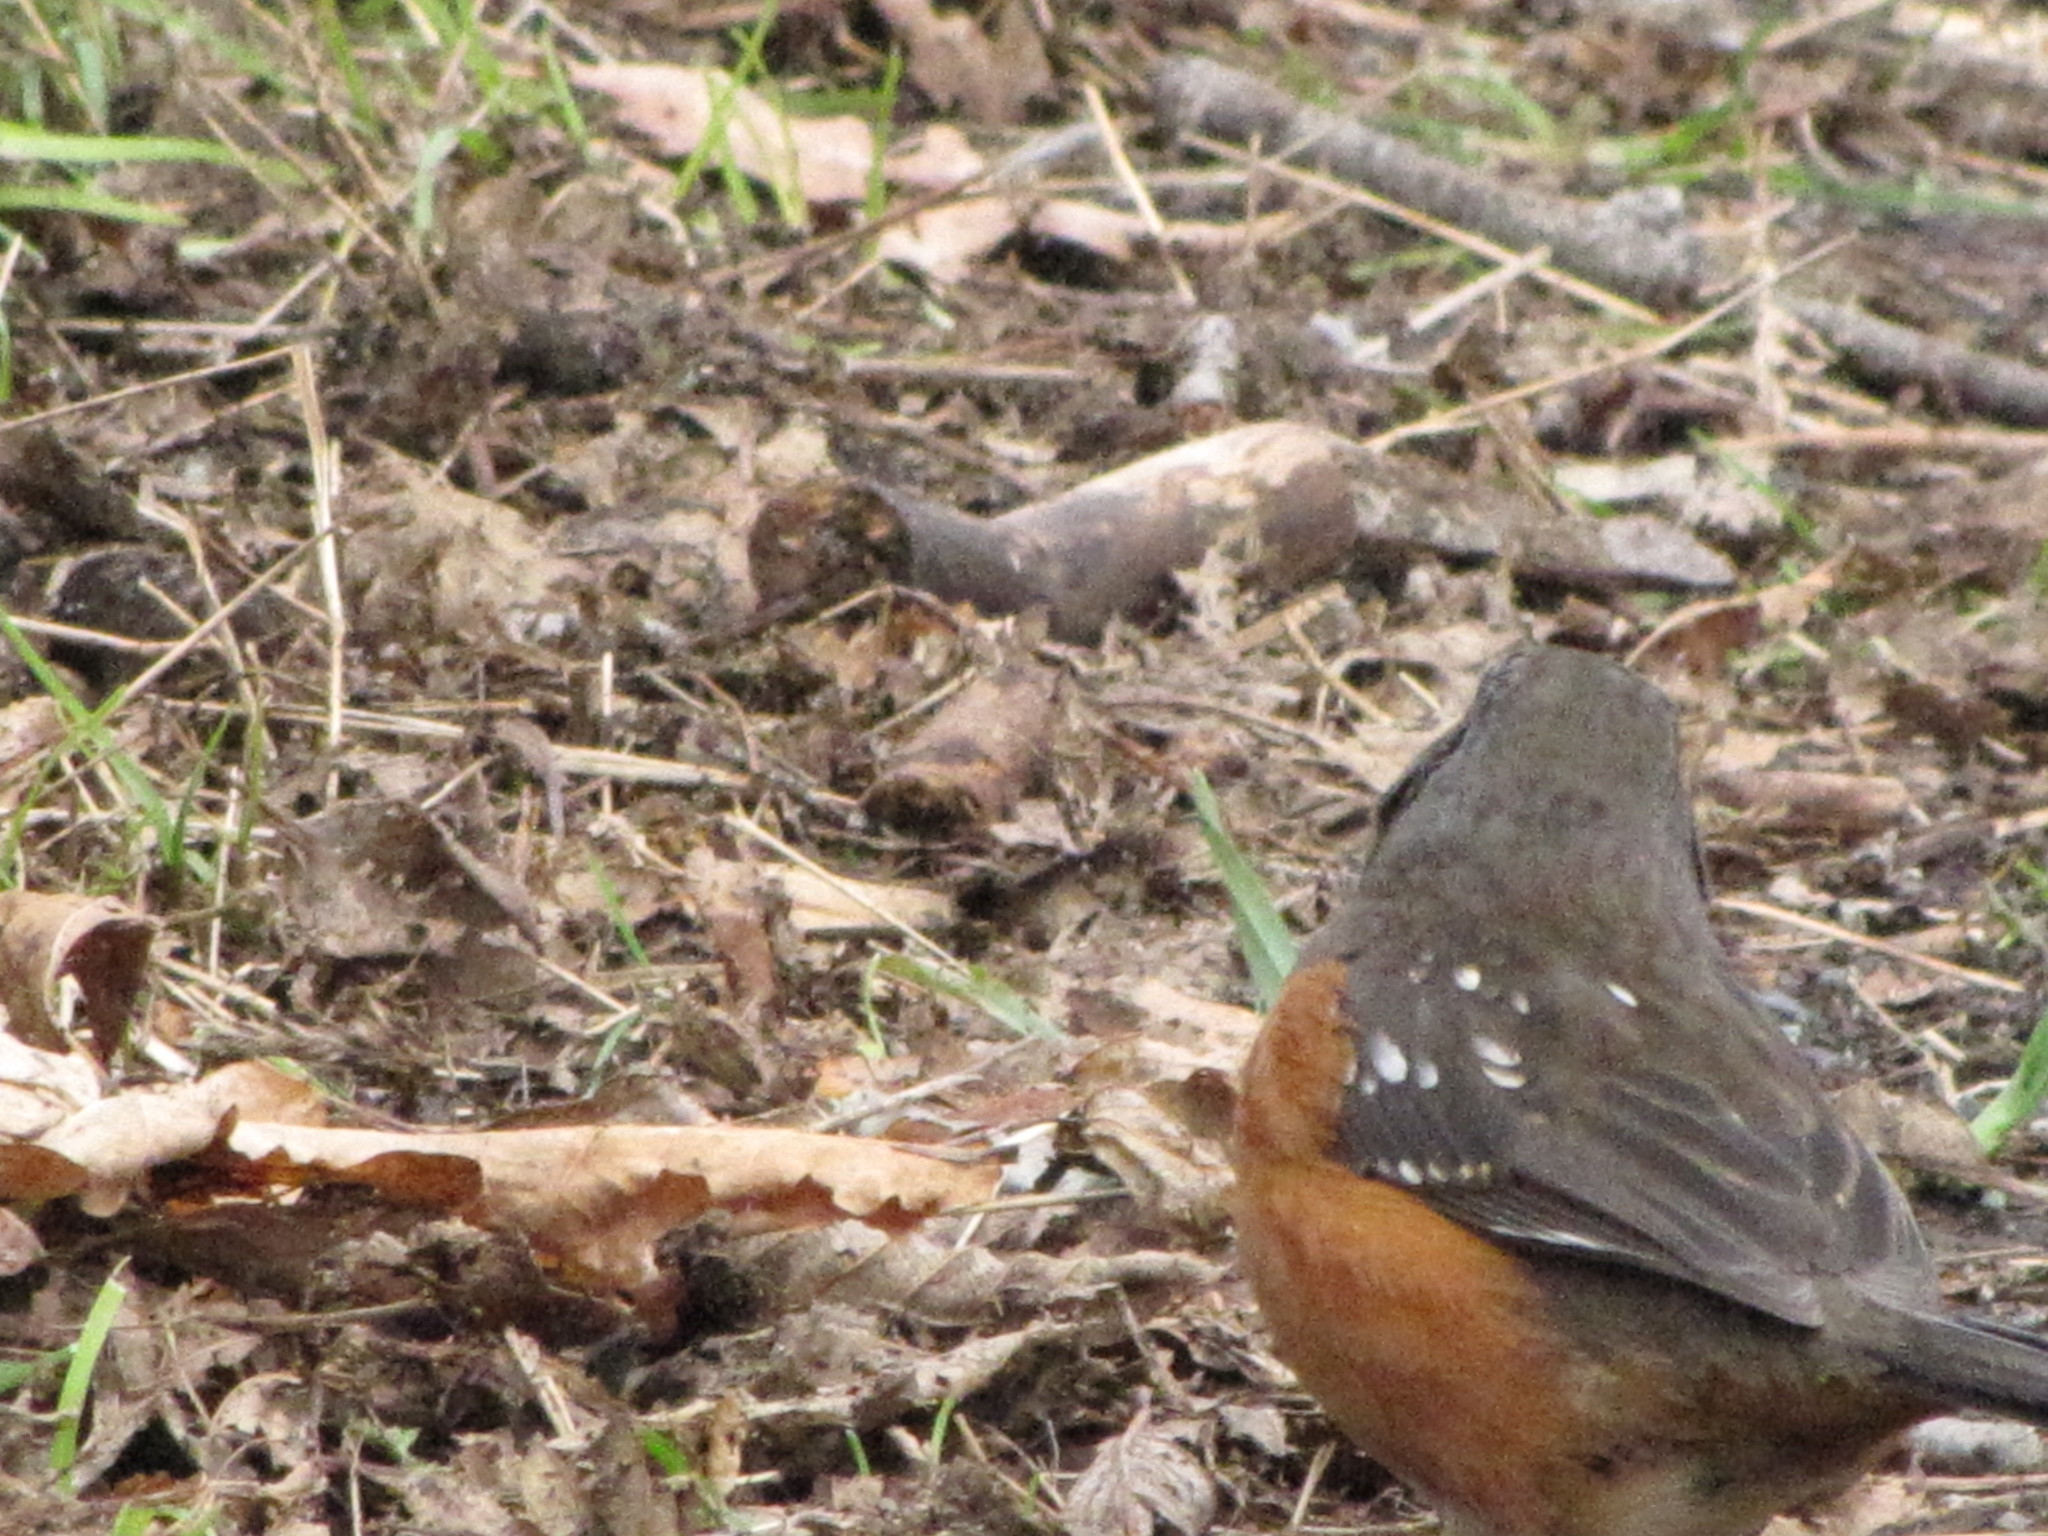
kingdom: Animalia
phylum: Chordata
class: Aves
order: Passeriformes
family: Passerellidae
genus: Pipilo
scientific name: Pipilo maculatus
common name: Spotted towhee
